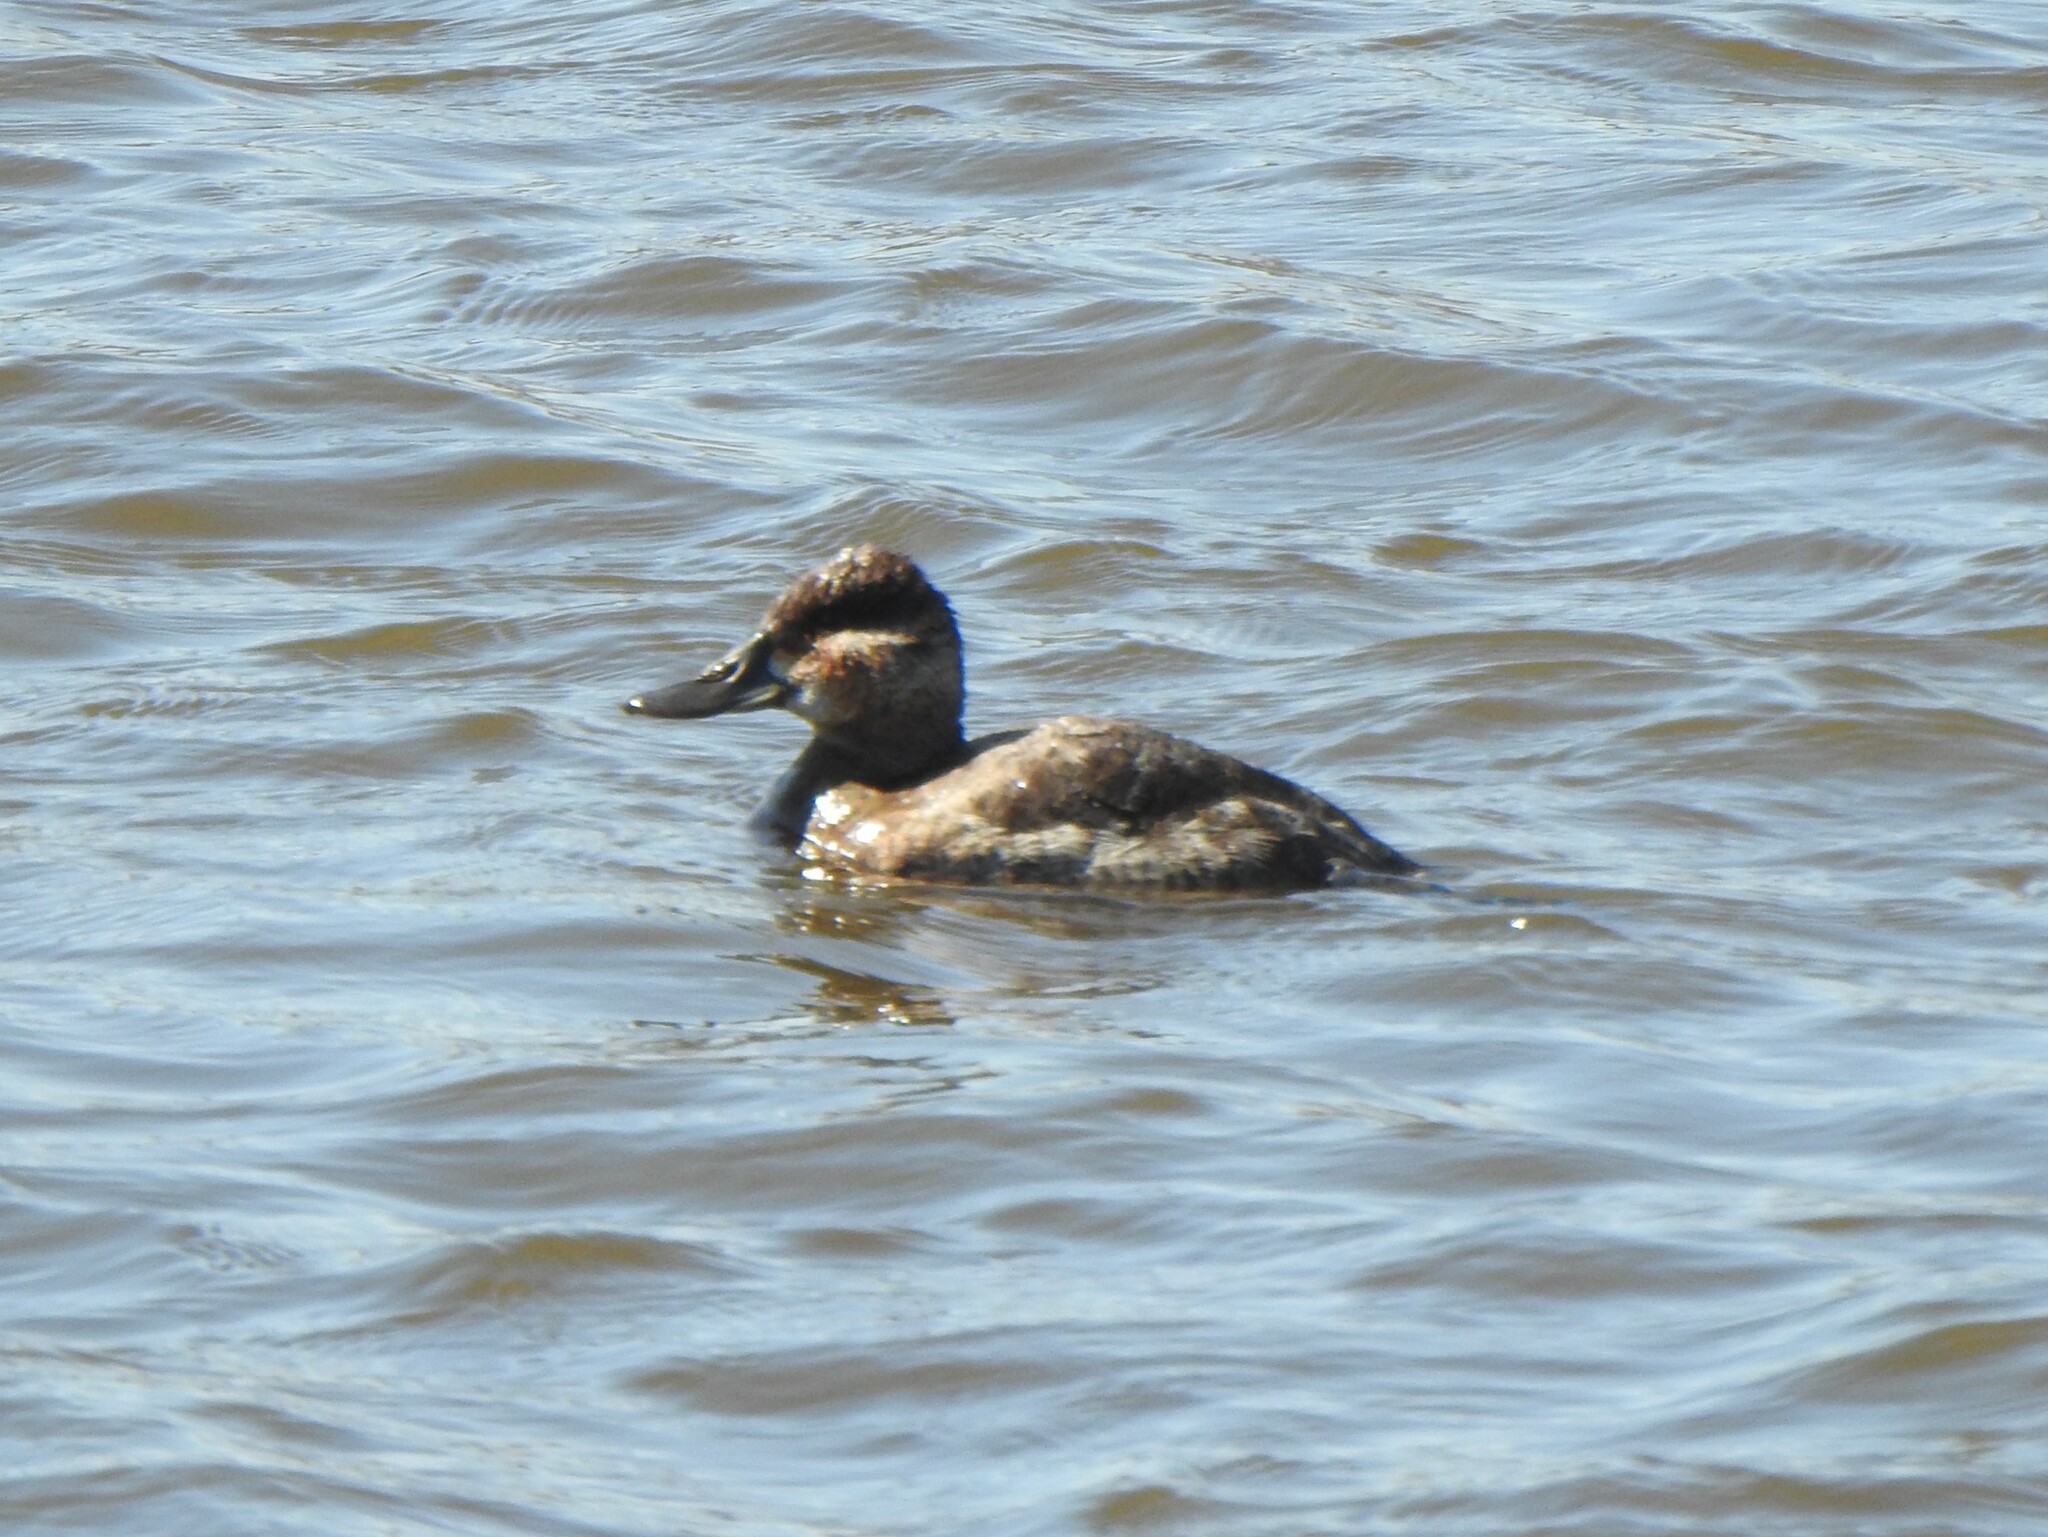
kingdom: Animalia
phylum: Chordata
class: Aves
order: Anseriformes
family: Anatidae
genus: Oxyura
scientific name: Oxyura jamaicensis
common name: Ruddy duck
